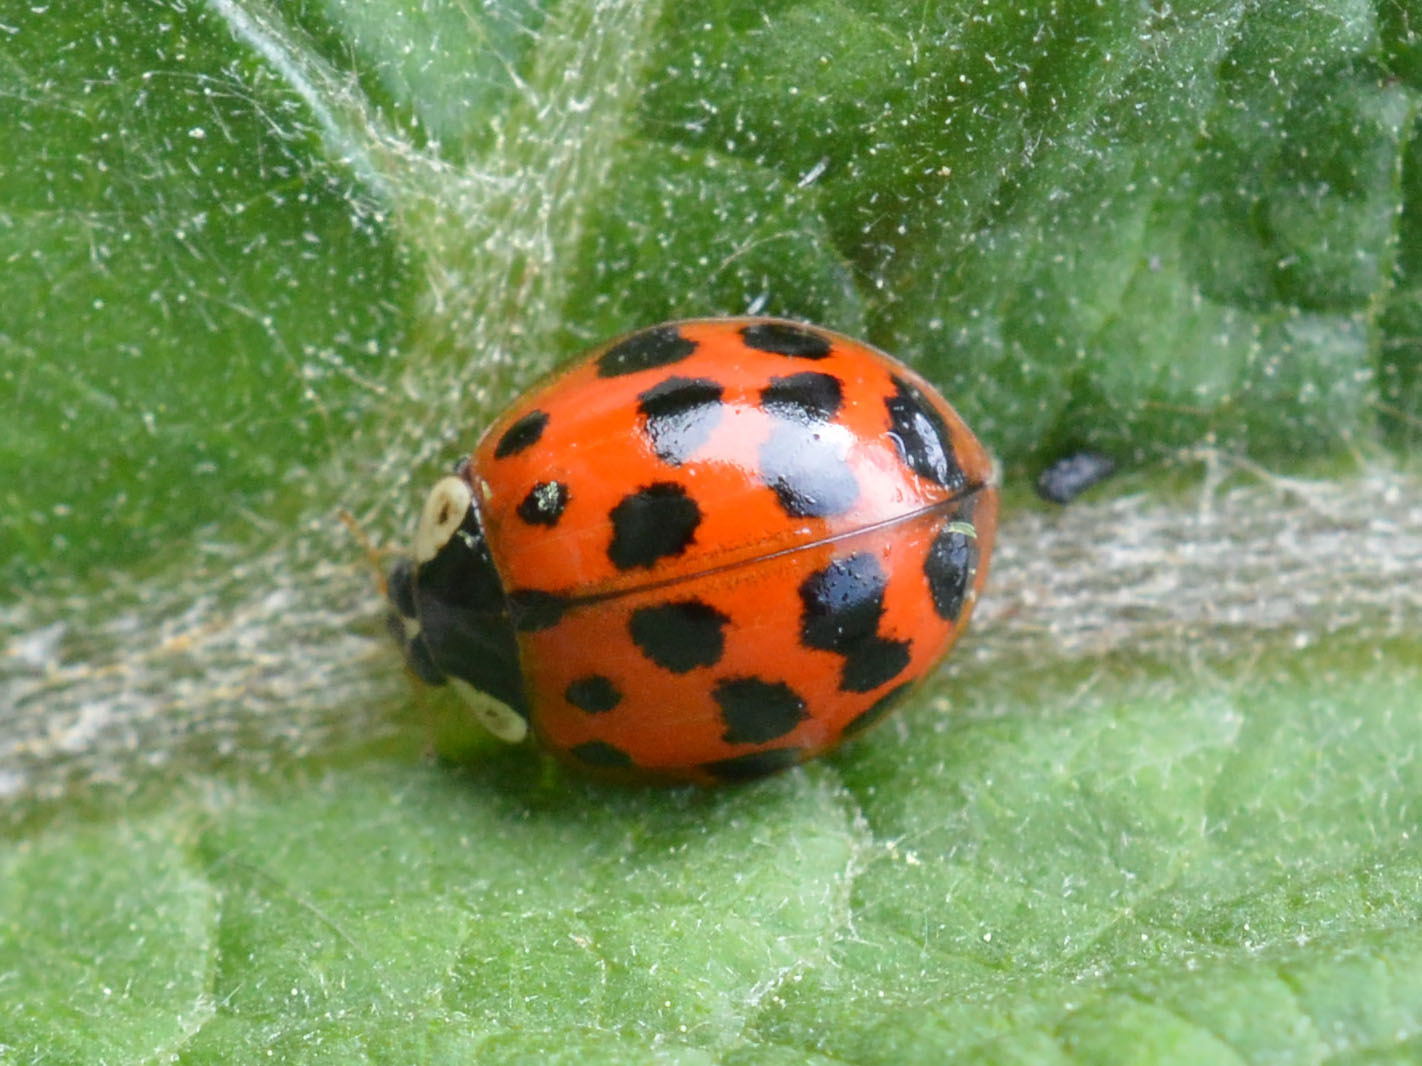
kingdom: Animalia
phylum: Arthropoda
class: Insecta
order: Coleoptera
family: Coccinellidae
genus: Harmonia
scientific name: Harmonia axyridis
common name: Harlequin ladybird
